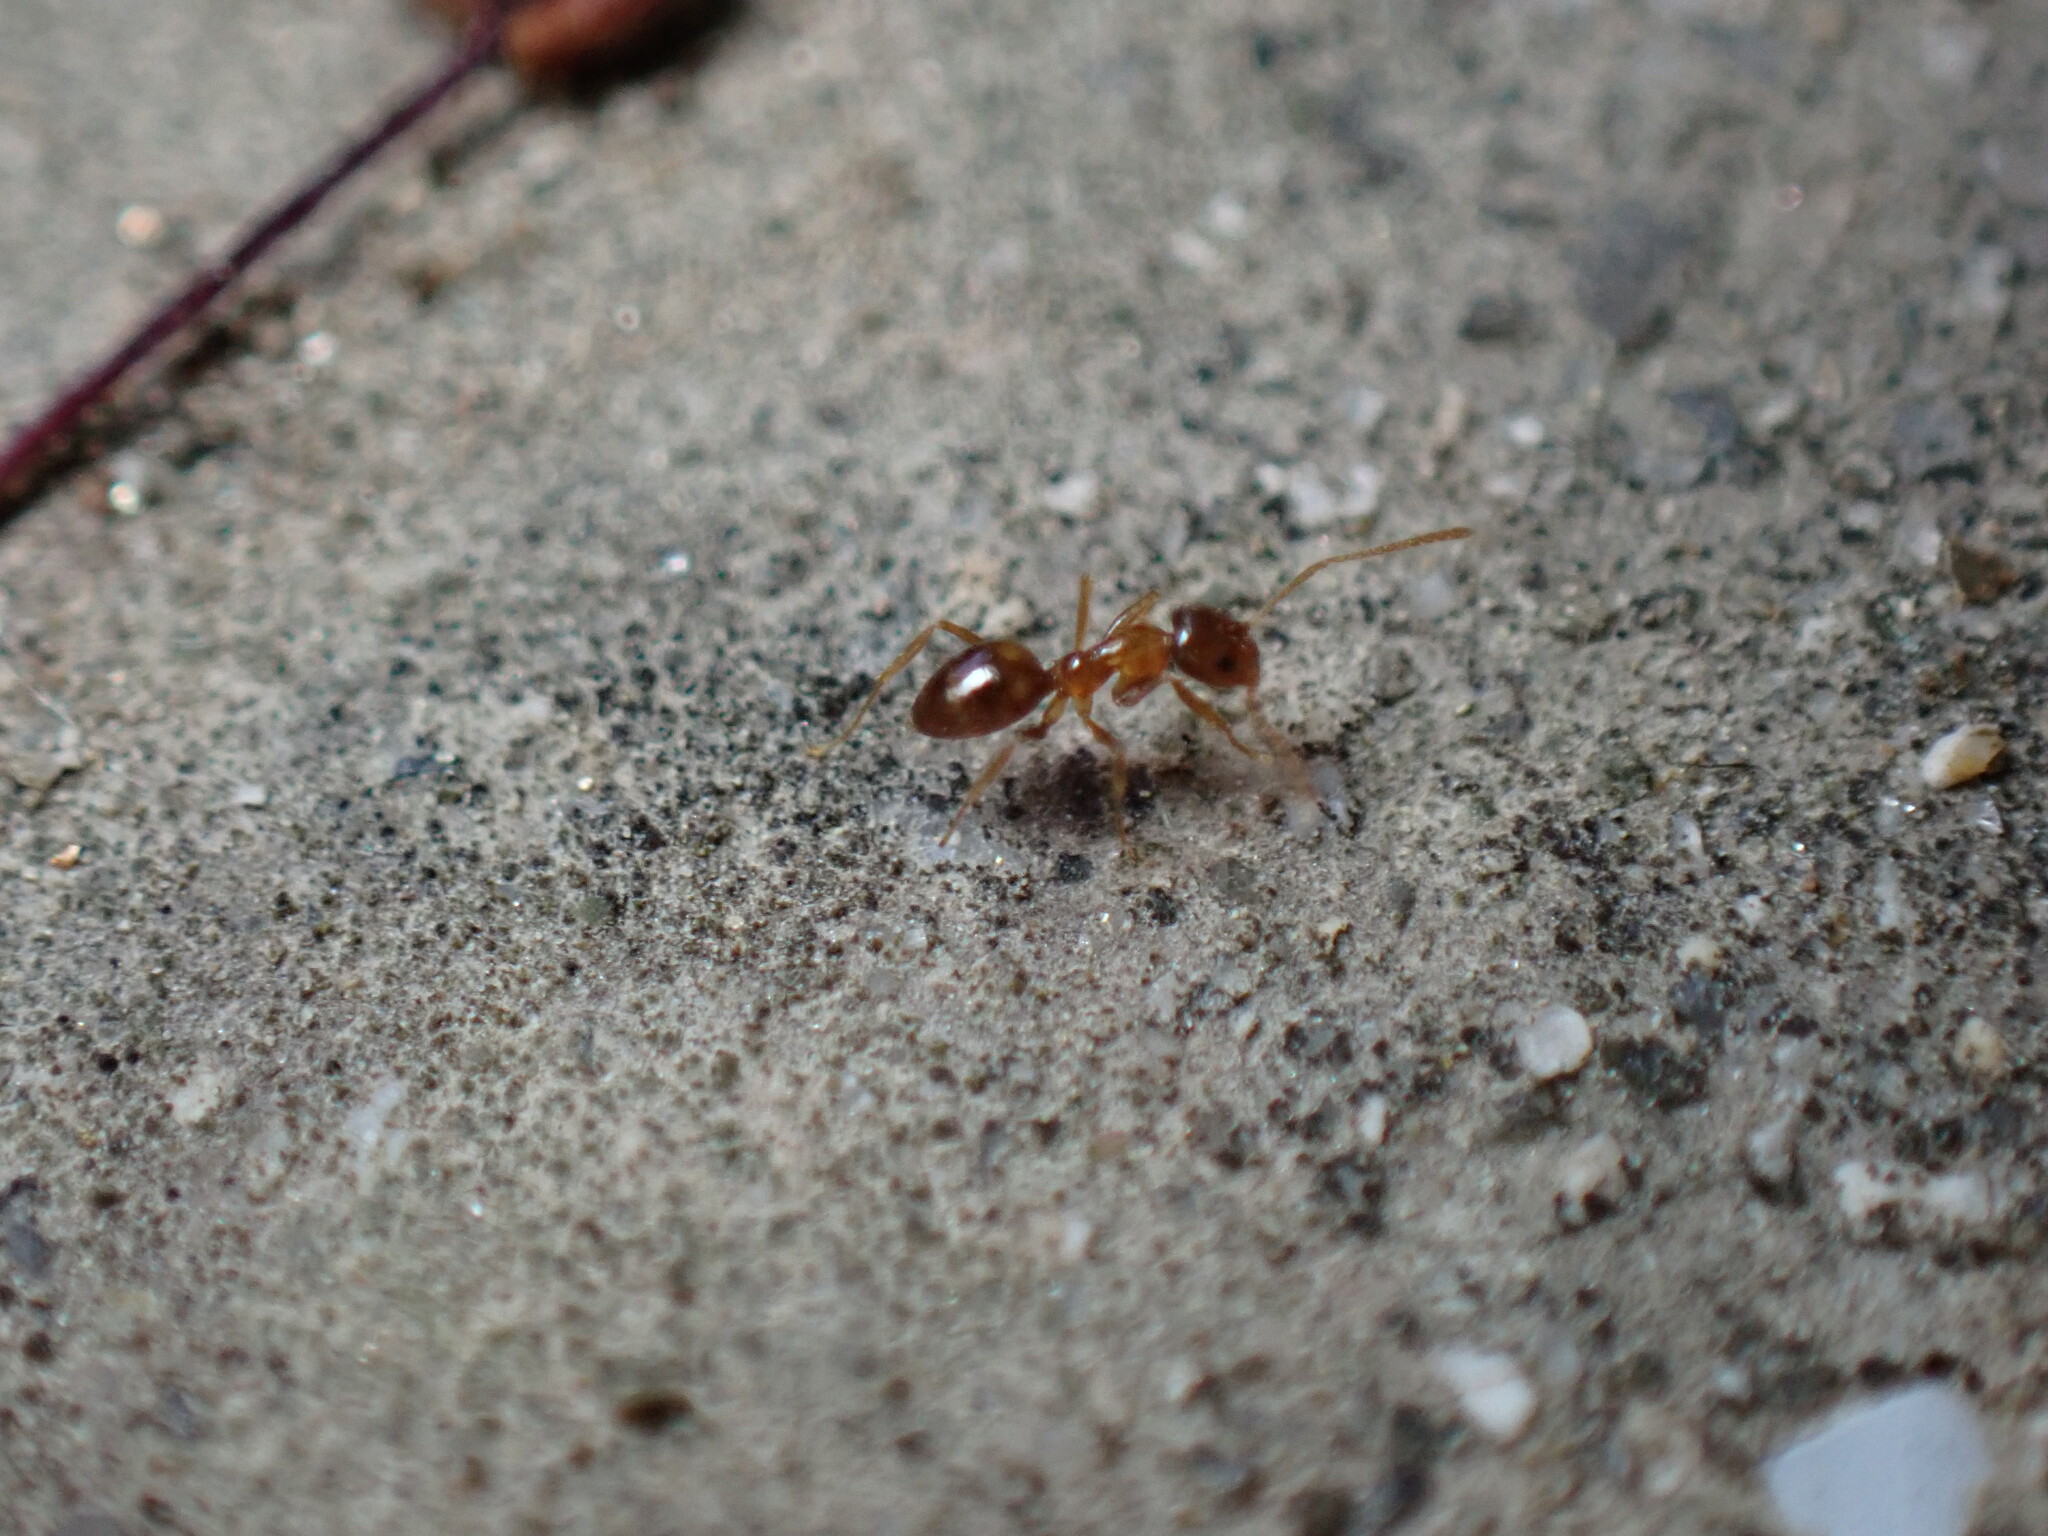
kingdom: Animalia
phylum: Arthropoda
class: Insecta
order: Hymenoptera
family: Formicidae
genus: Paratrechina
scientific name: Paratrechina flavipes
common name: Eastern asian formicine ant
